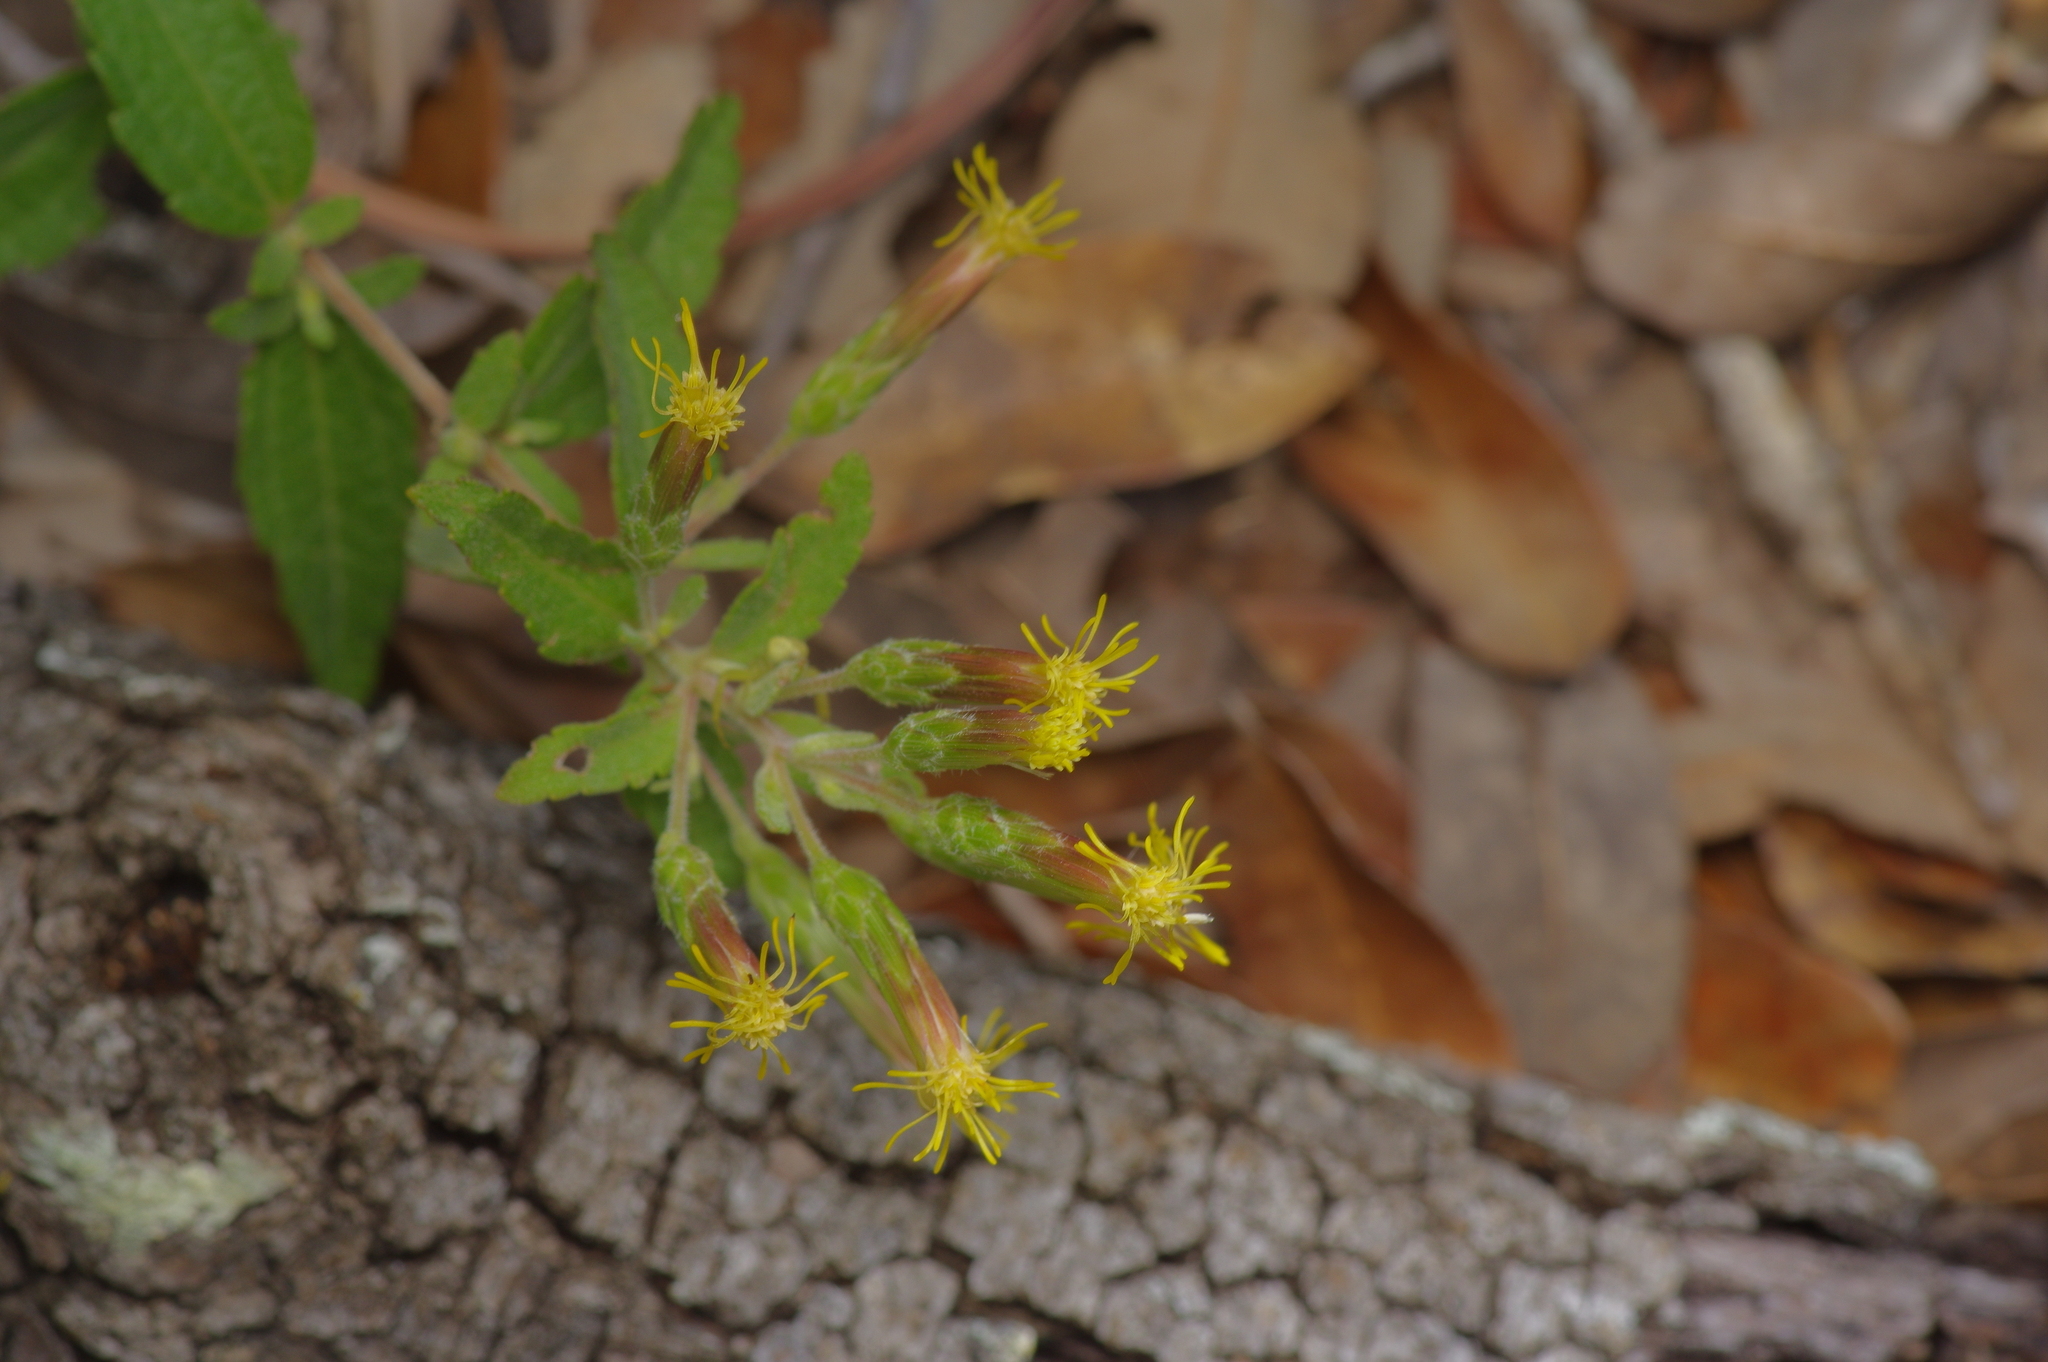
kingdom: Plantae
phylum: Tracheophyta
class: Magnoliopsida
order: Asterales
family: Asteraceae
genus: Brickellia
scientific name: Brickellia cylindracea
